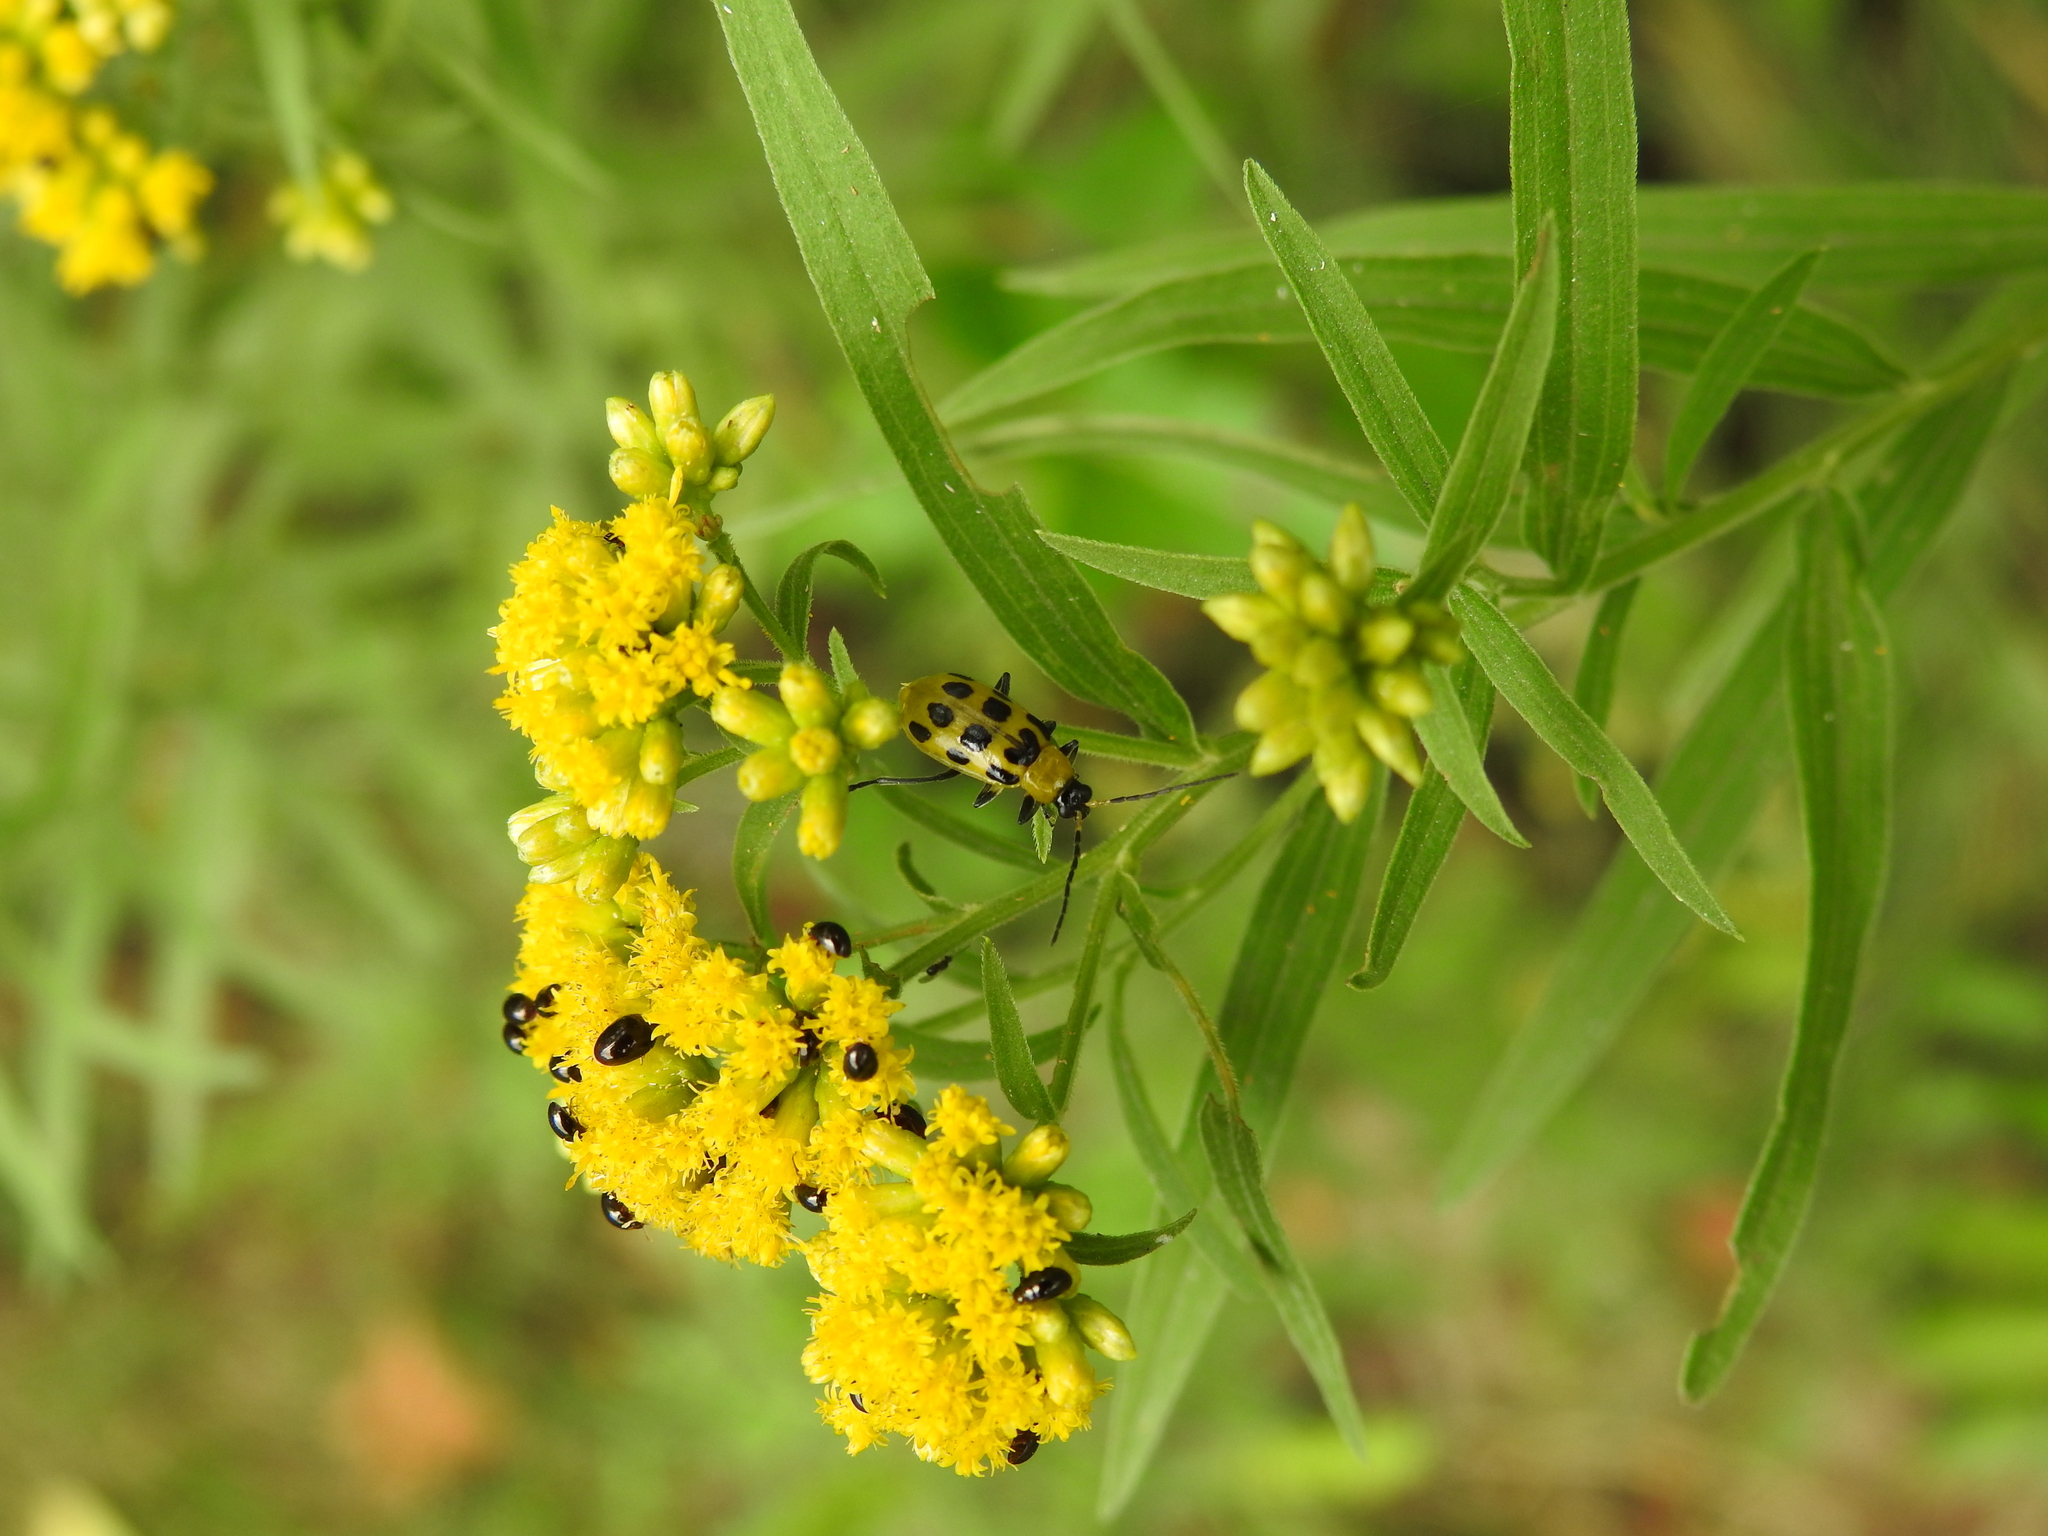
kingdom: Animalia
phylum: Arthropoda
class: Insecta
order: Coleoptera
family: Chrysomelidae
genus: Diabrotica
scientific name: Diabrotica undecimpunctata
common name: Spotted cucumber beetle
